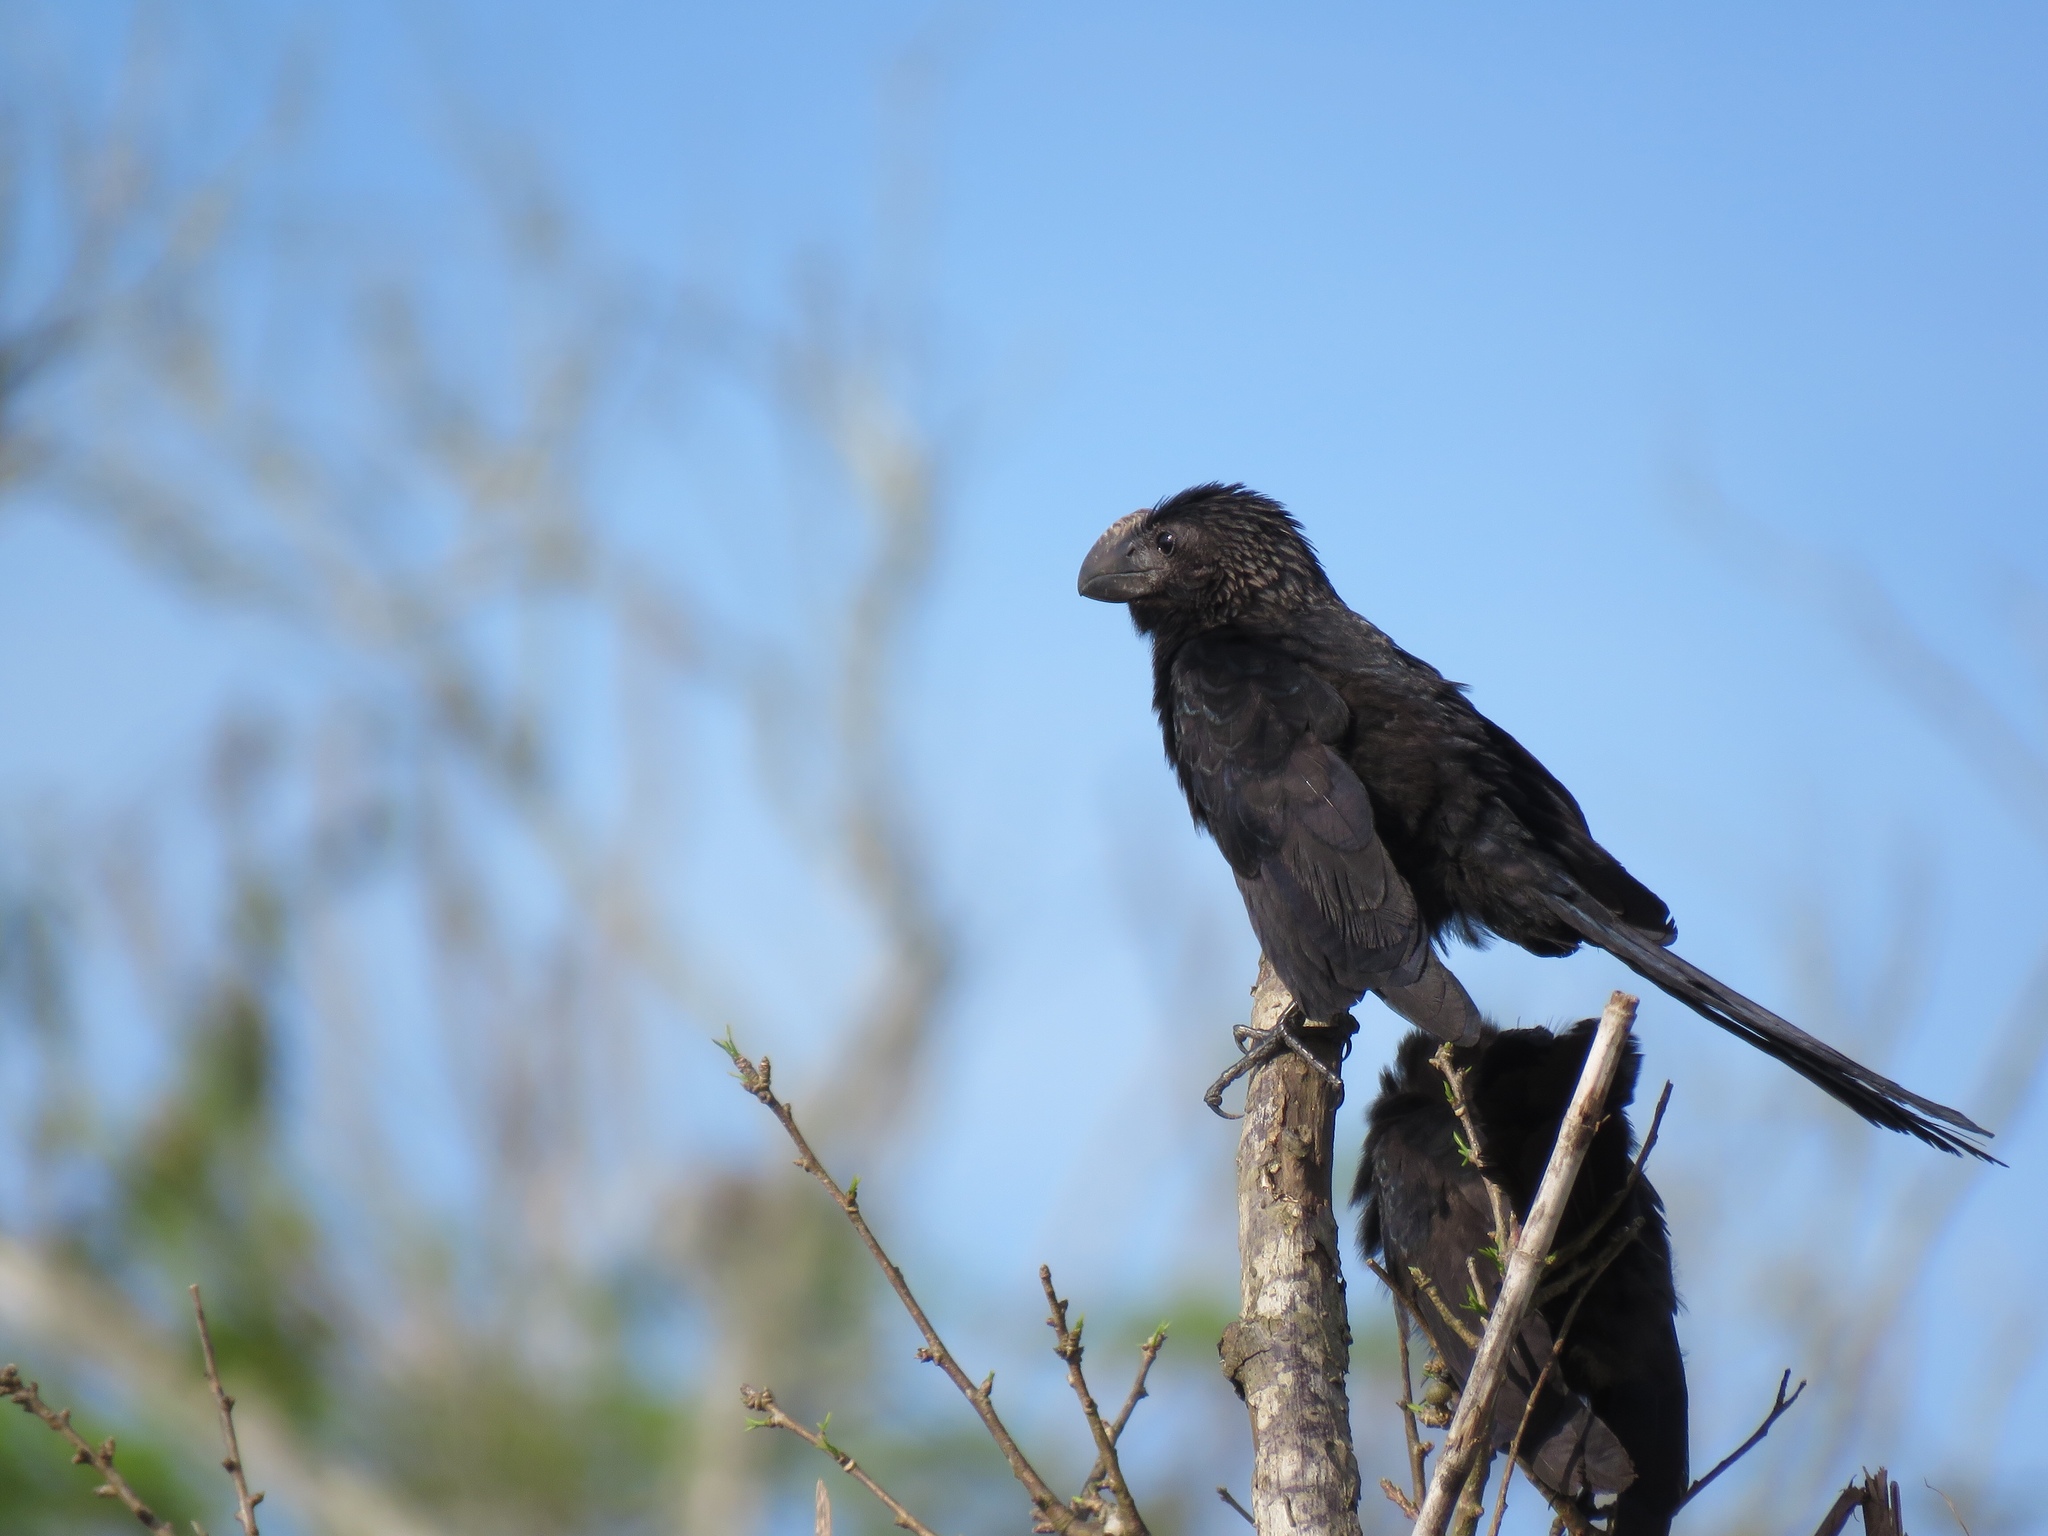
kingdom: Animalia
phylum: Chordata
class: Aves
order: Cuculiformes
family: Cuculidae
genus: Crotophaga
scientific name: Crotophaga ani
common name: Smooth-billed ani
